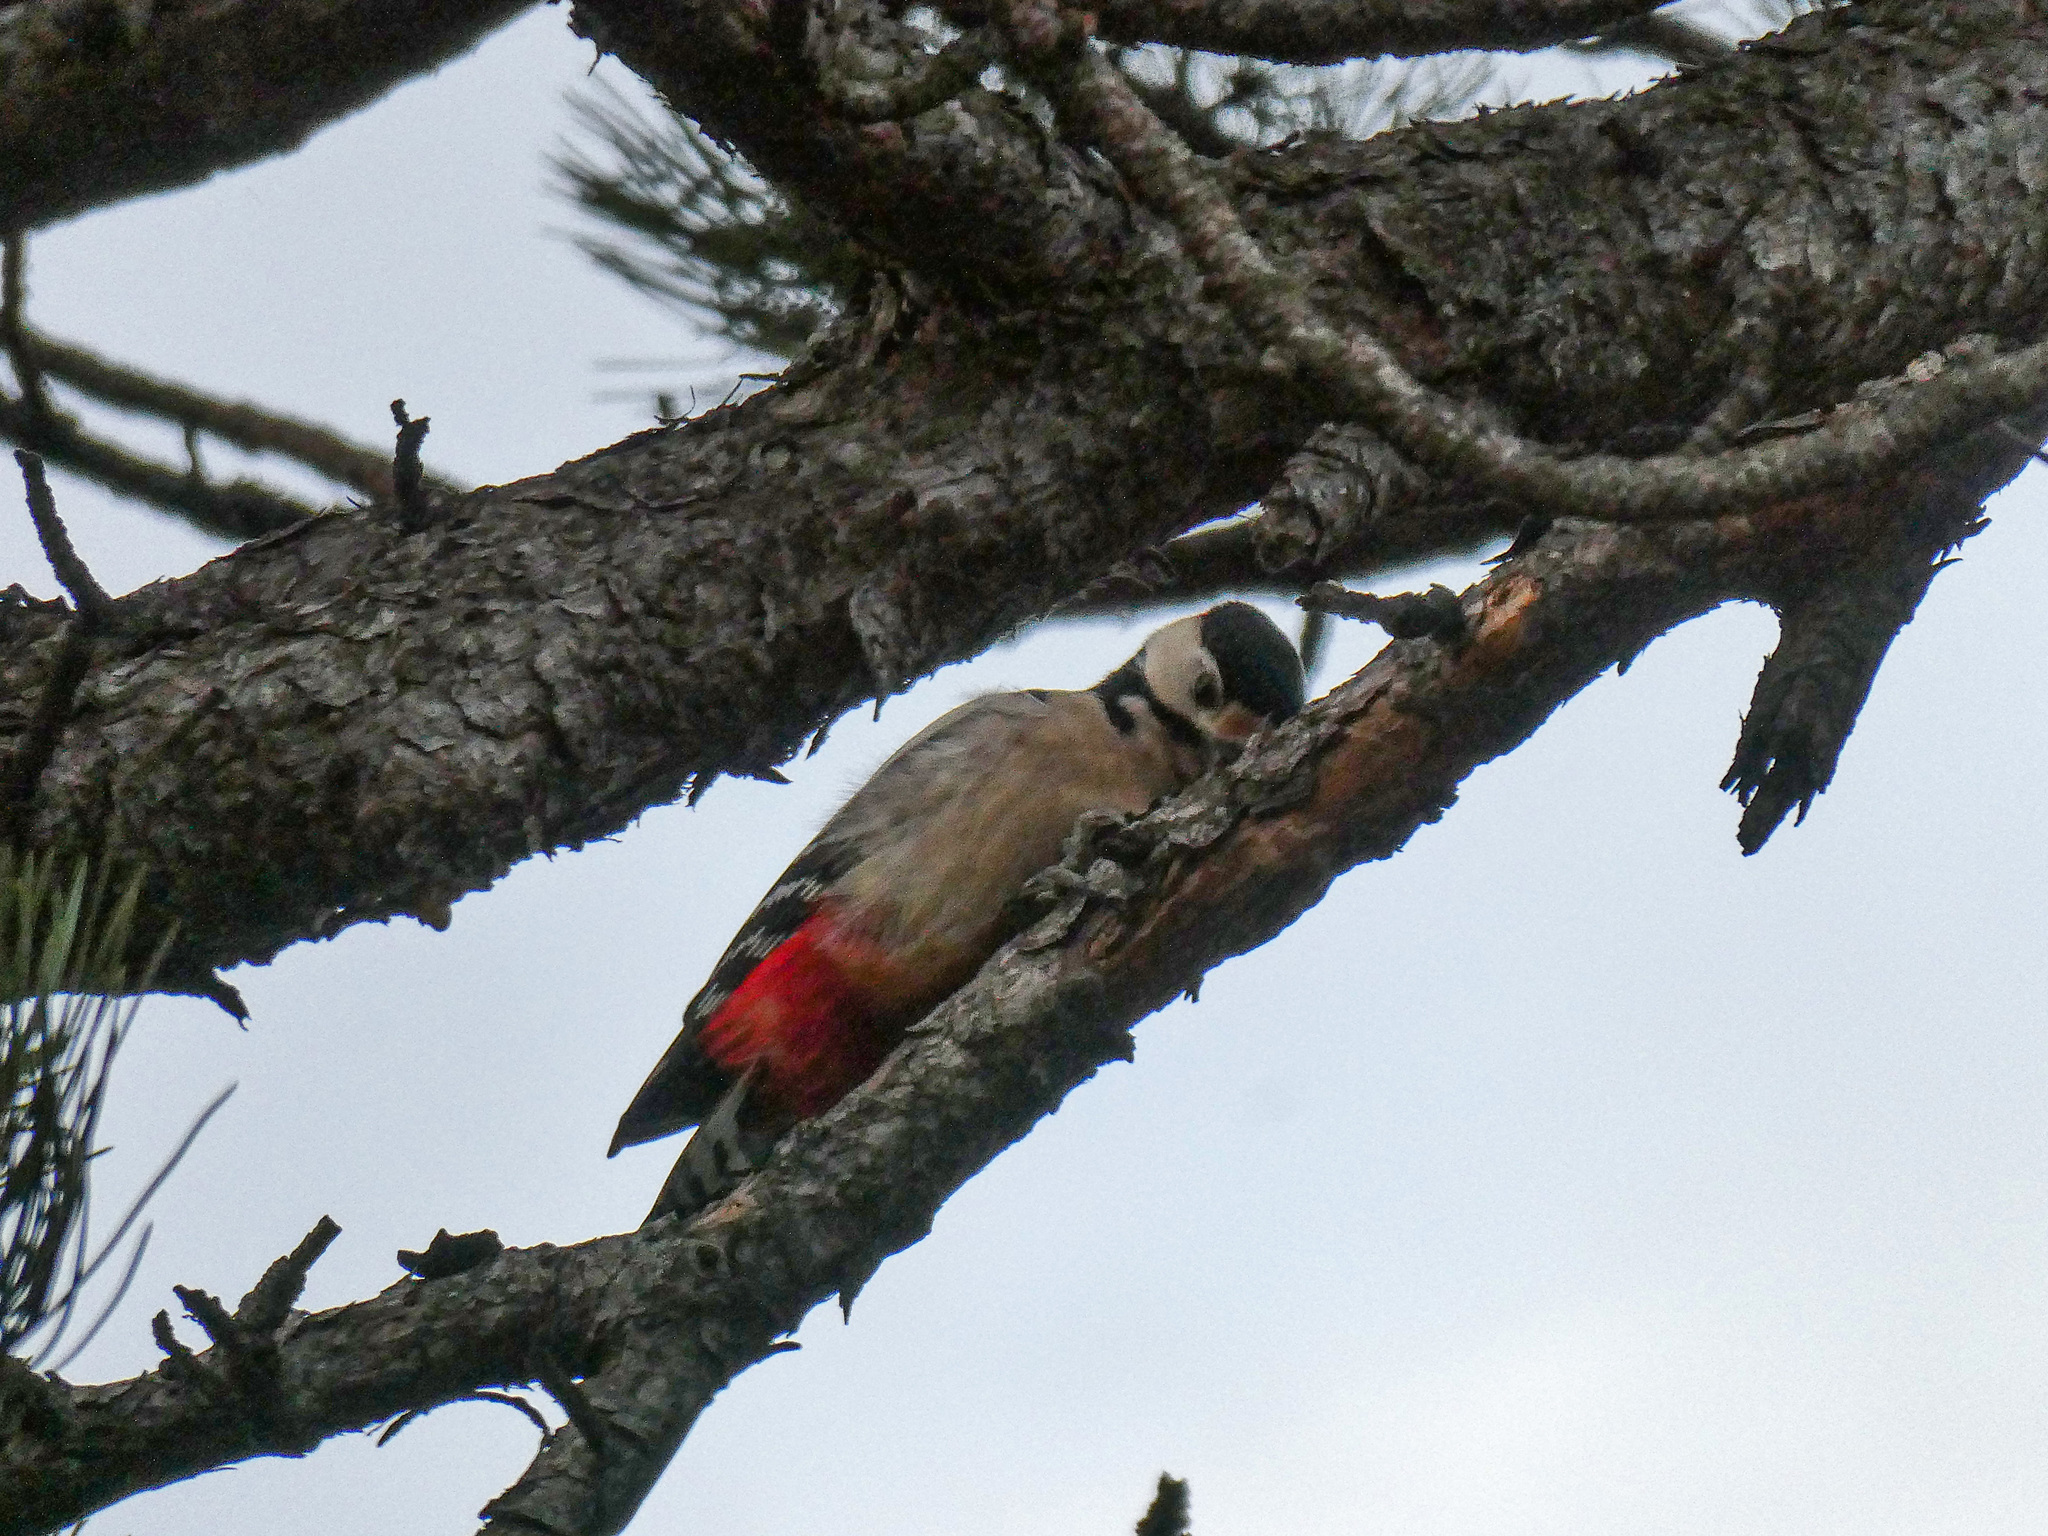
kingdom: Animalia
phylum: Chordata
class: Aves
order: Piciformes
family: Picidae
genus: Dendrocopos
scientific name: Dendrocopos major
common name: Great spotted woodpecker
